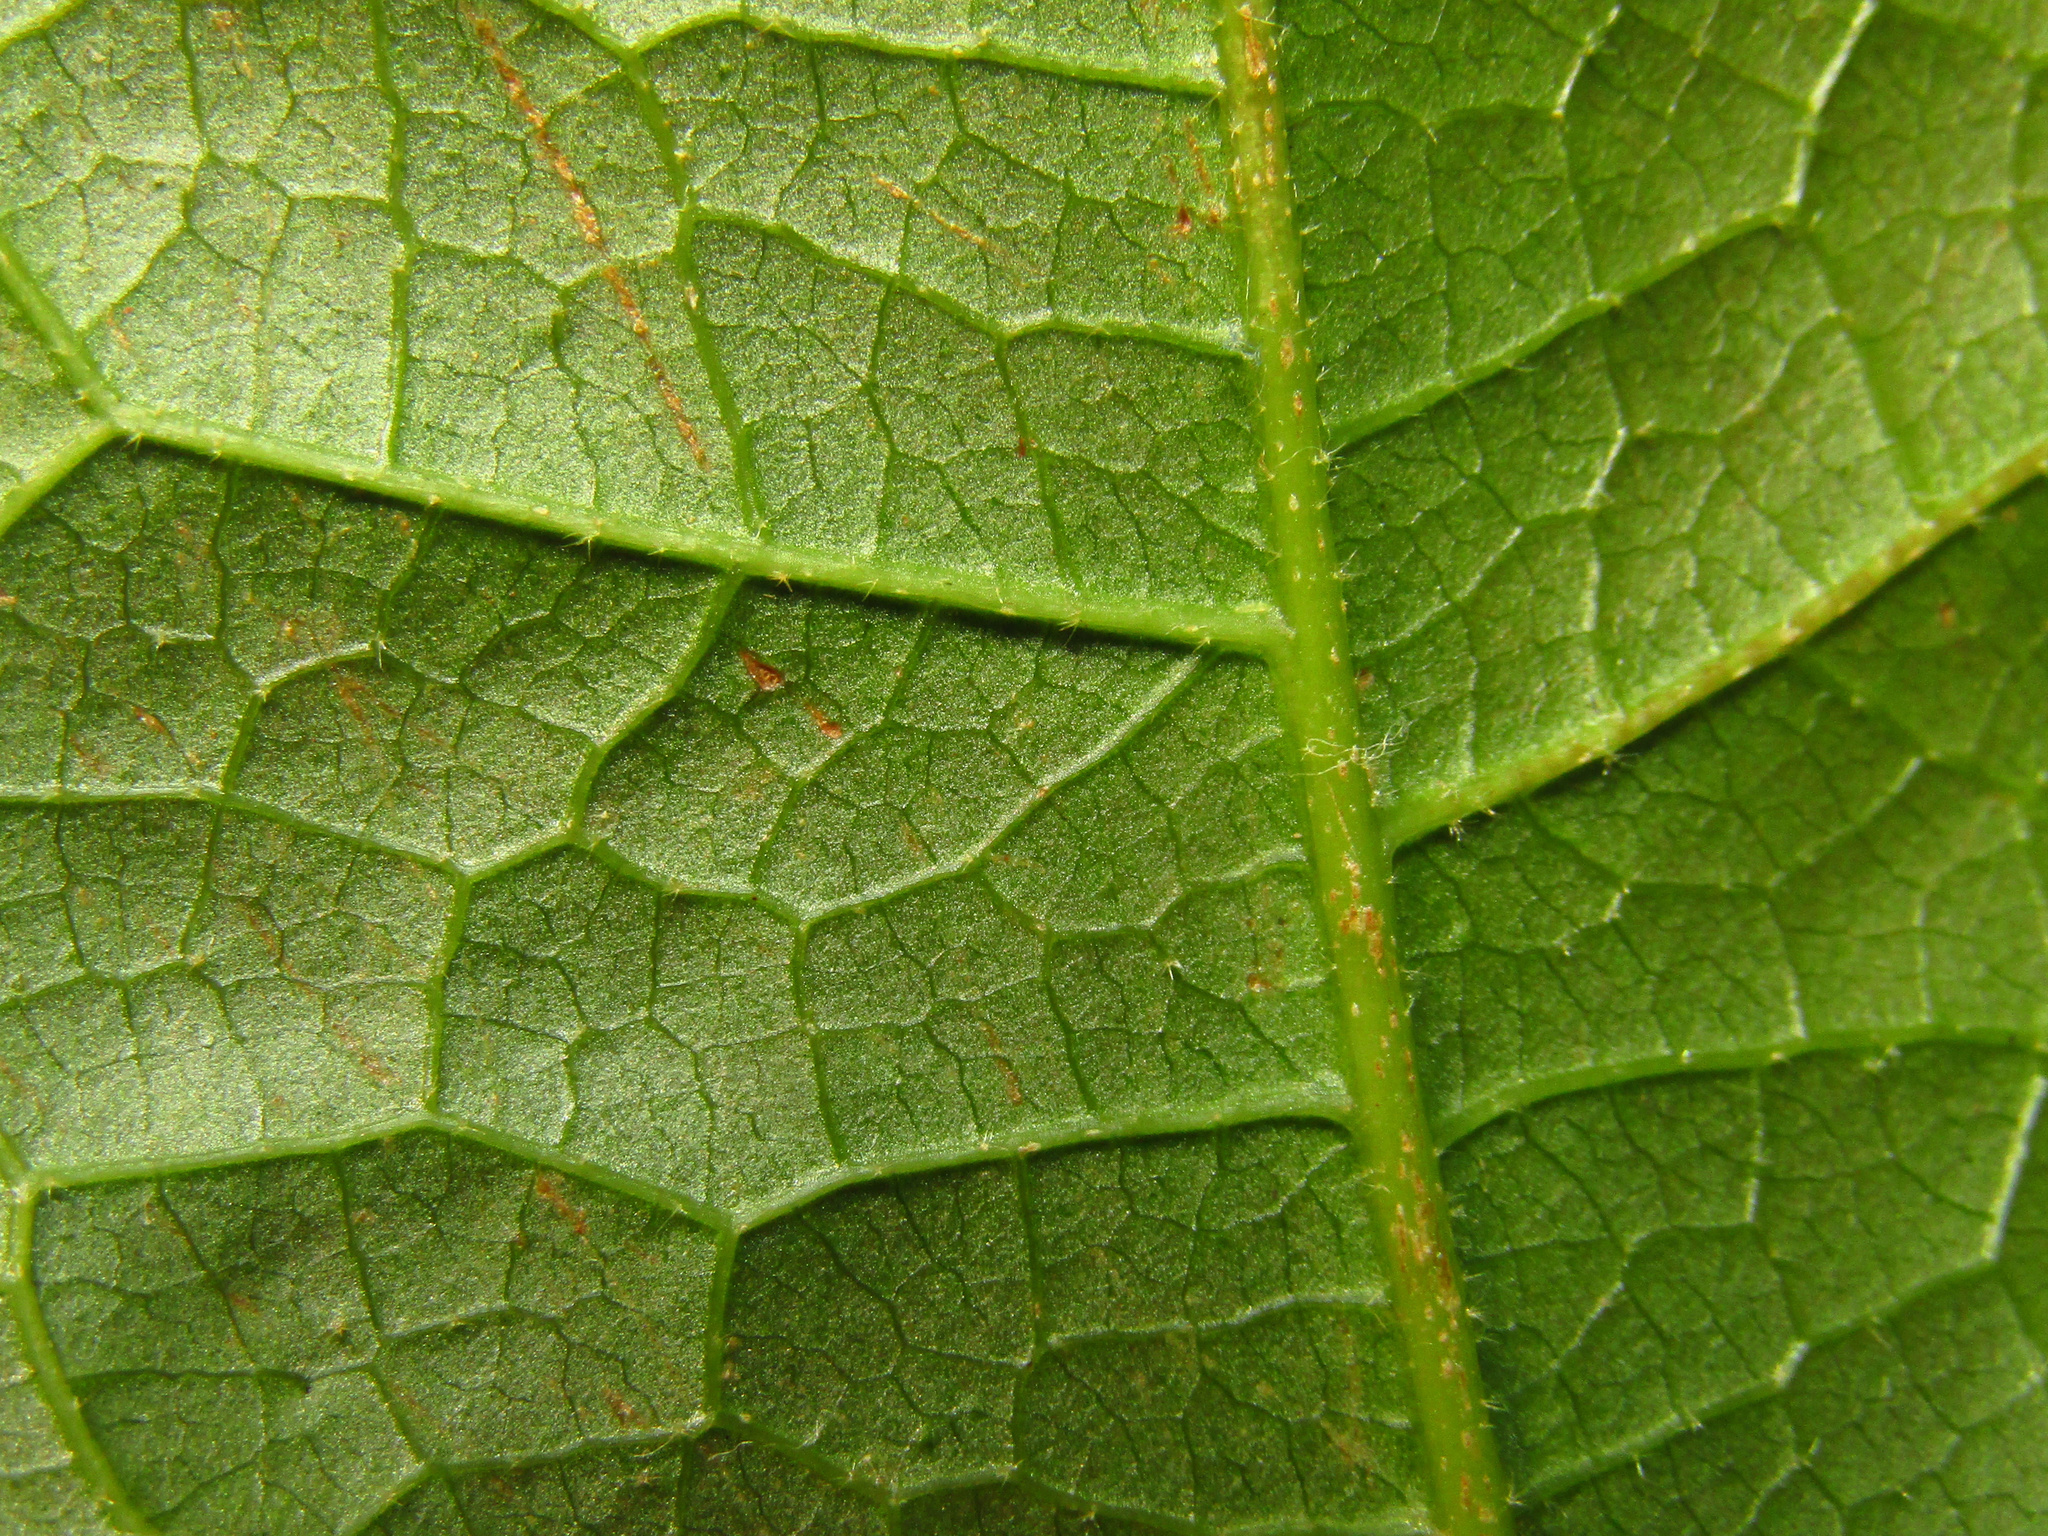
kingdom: Plantae
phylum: Tracheophyta
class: Magnoliopsida
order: Laurales
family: Monimiaceae
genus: Palmeria
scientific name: Palmeria scandens
